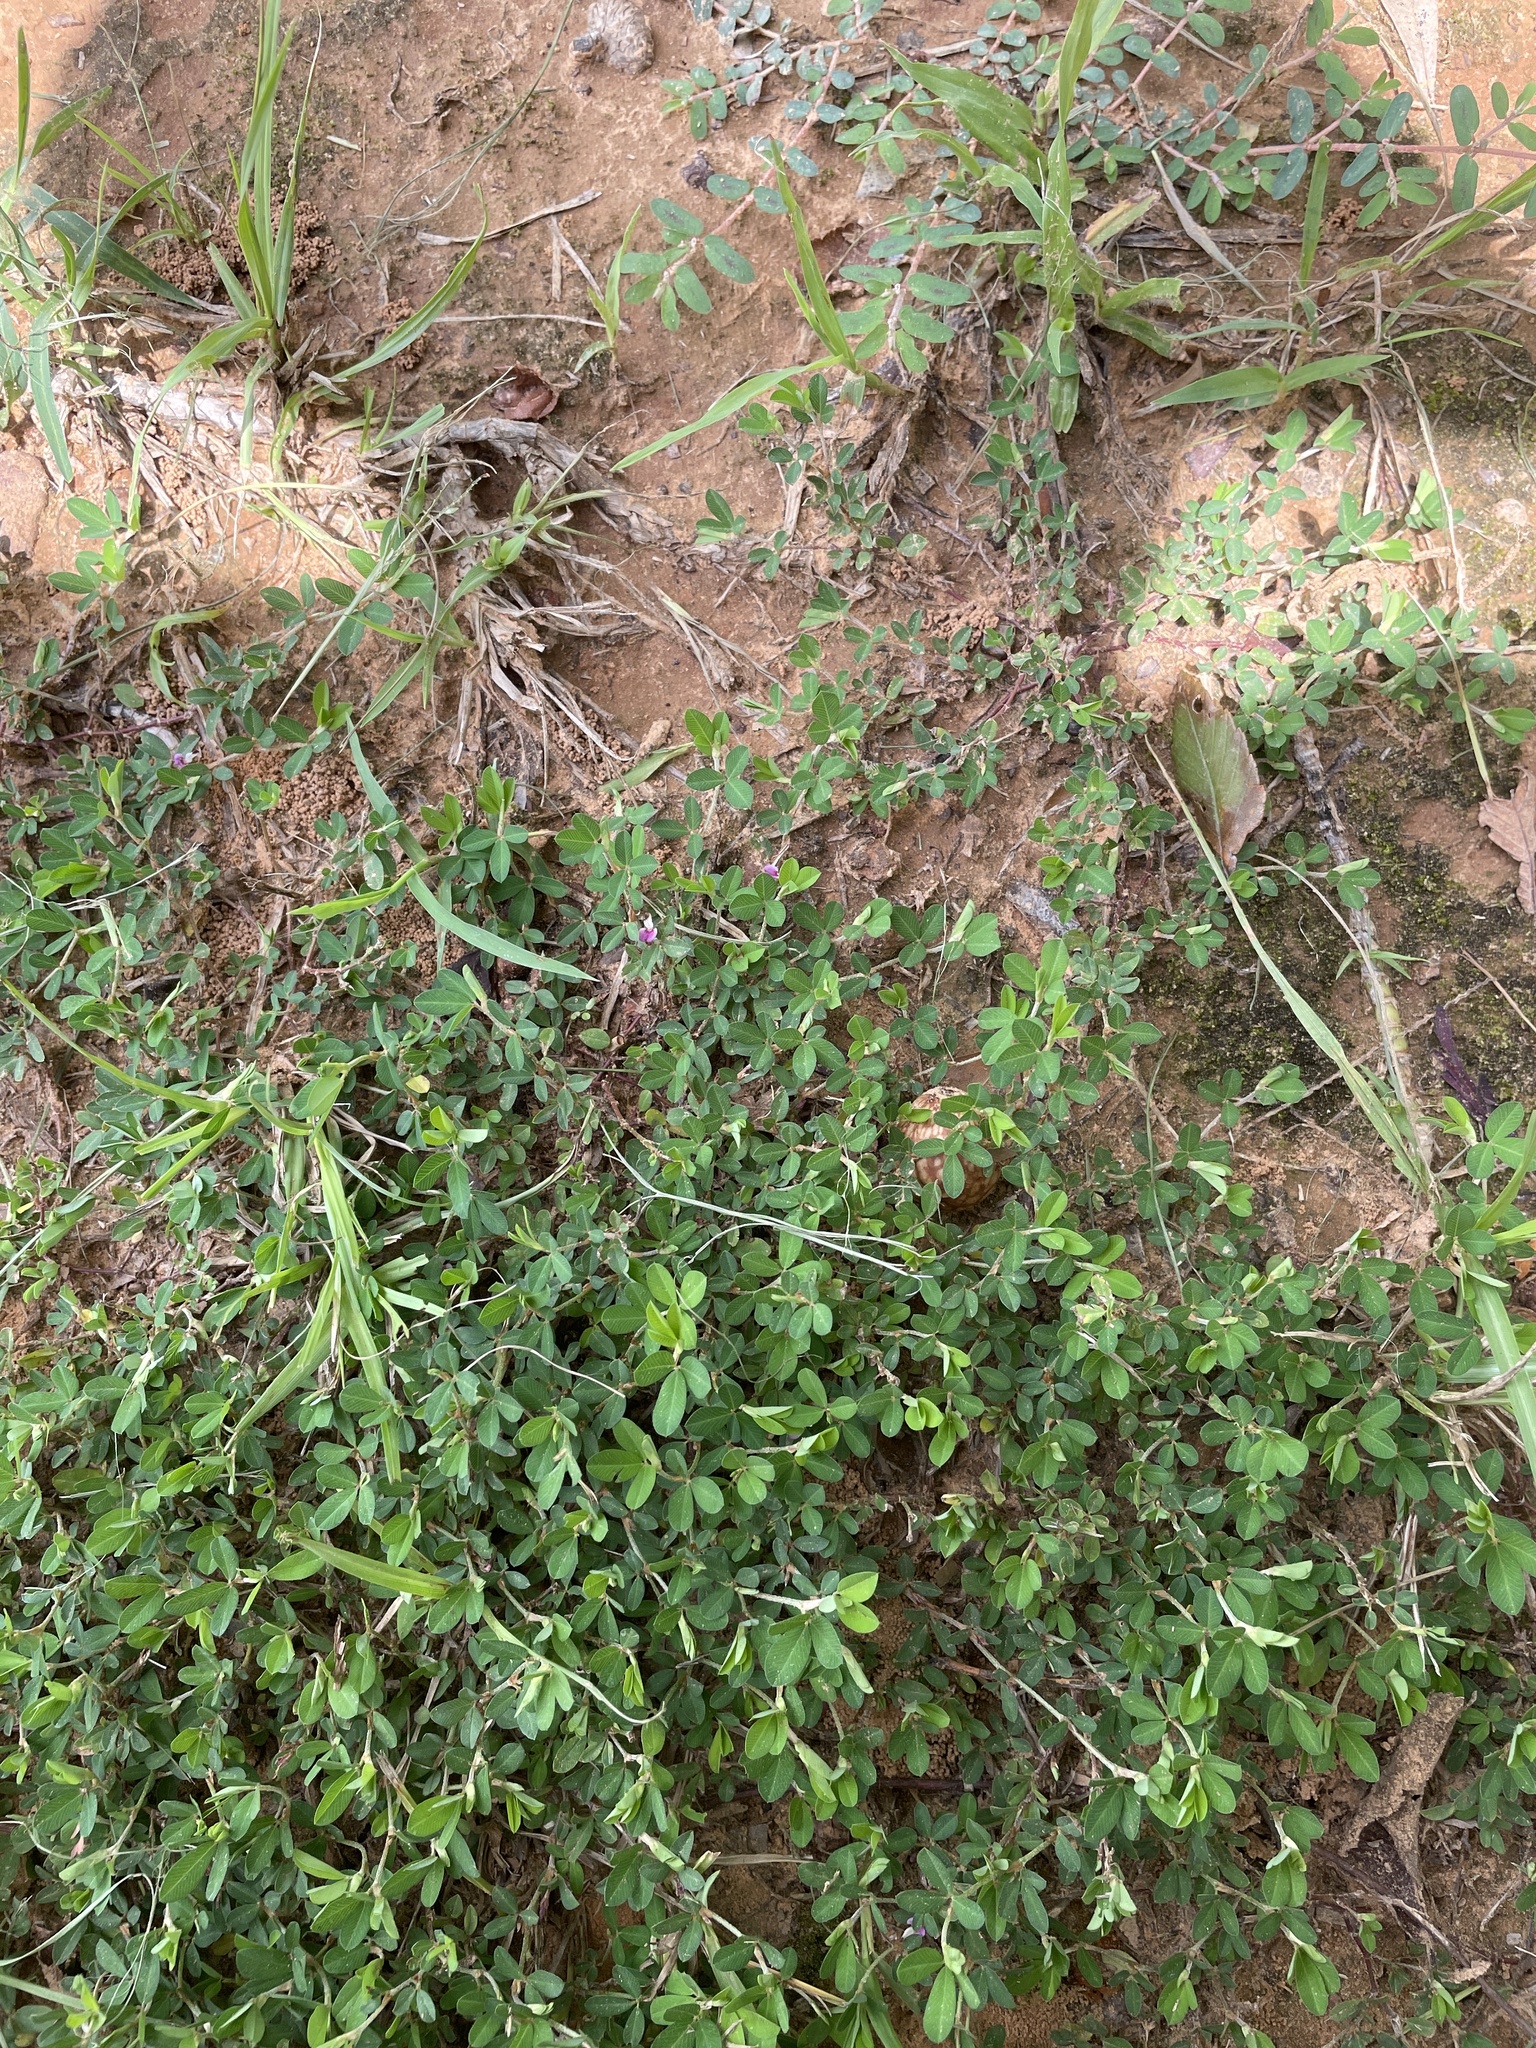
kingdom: Plantae
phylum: Tracheophyta
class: Magnoliopsida
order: Fabales
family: Fabaceae
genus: Kummerowia
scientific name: Kummerowia striata
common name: Japanese clover
